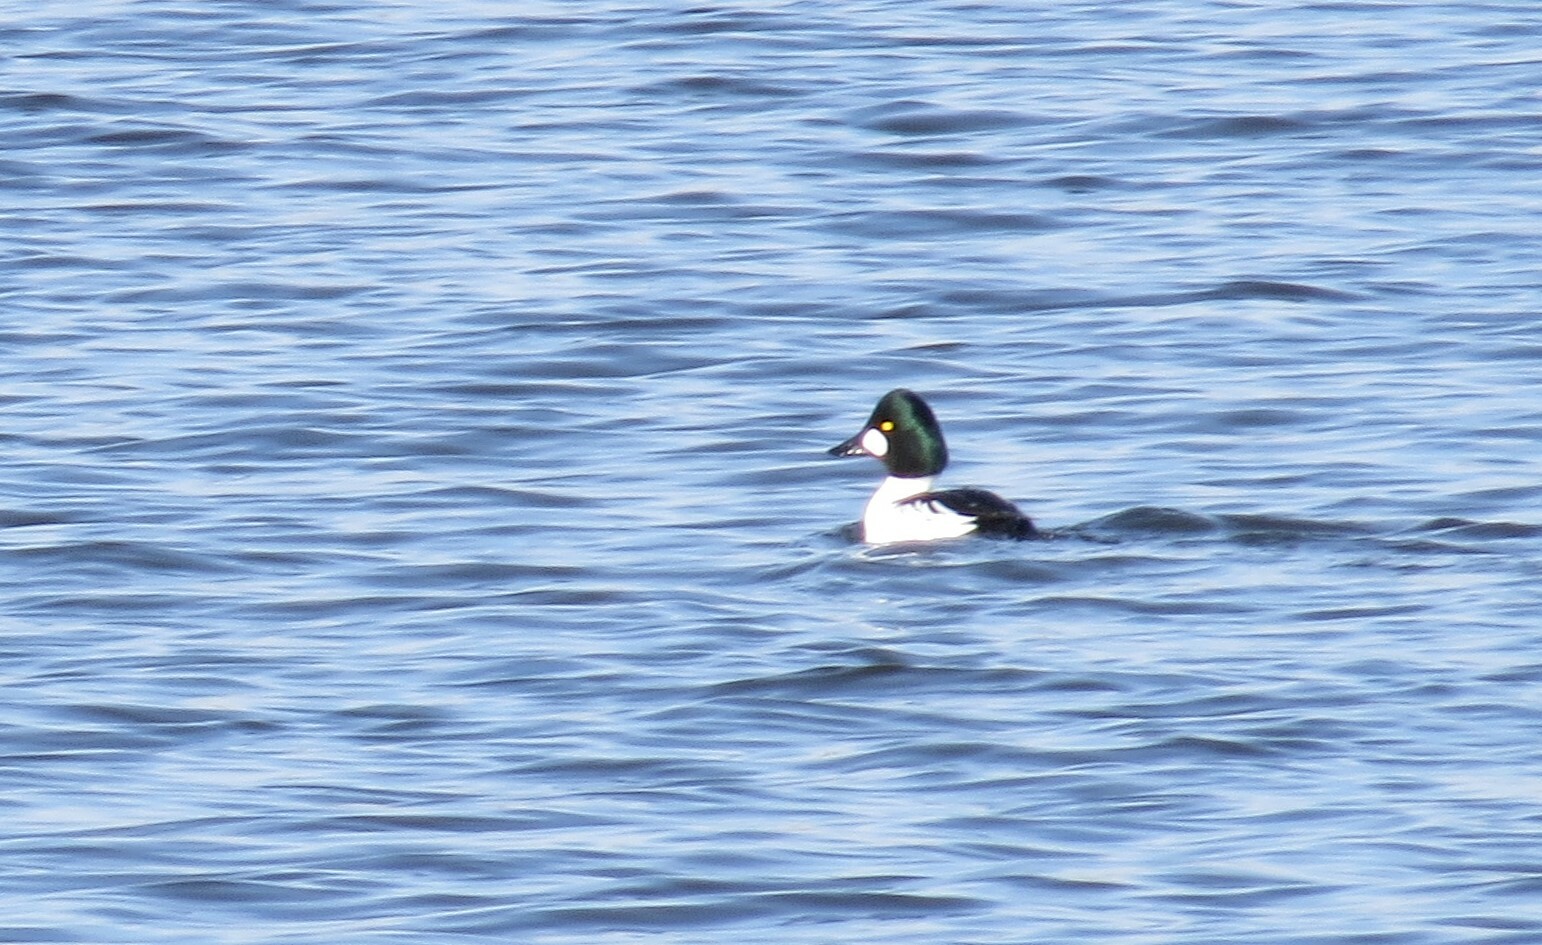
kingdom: Animalia
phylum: Chordata
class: Aves
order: Anseriformes
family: Anatidae
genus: Bucephala
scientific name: Bucephala clangula
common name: Common goldeneye
